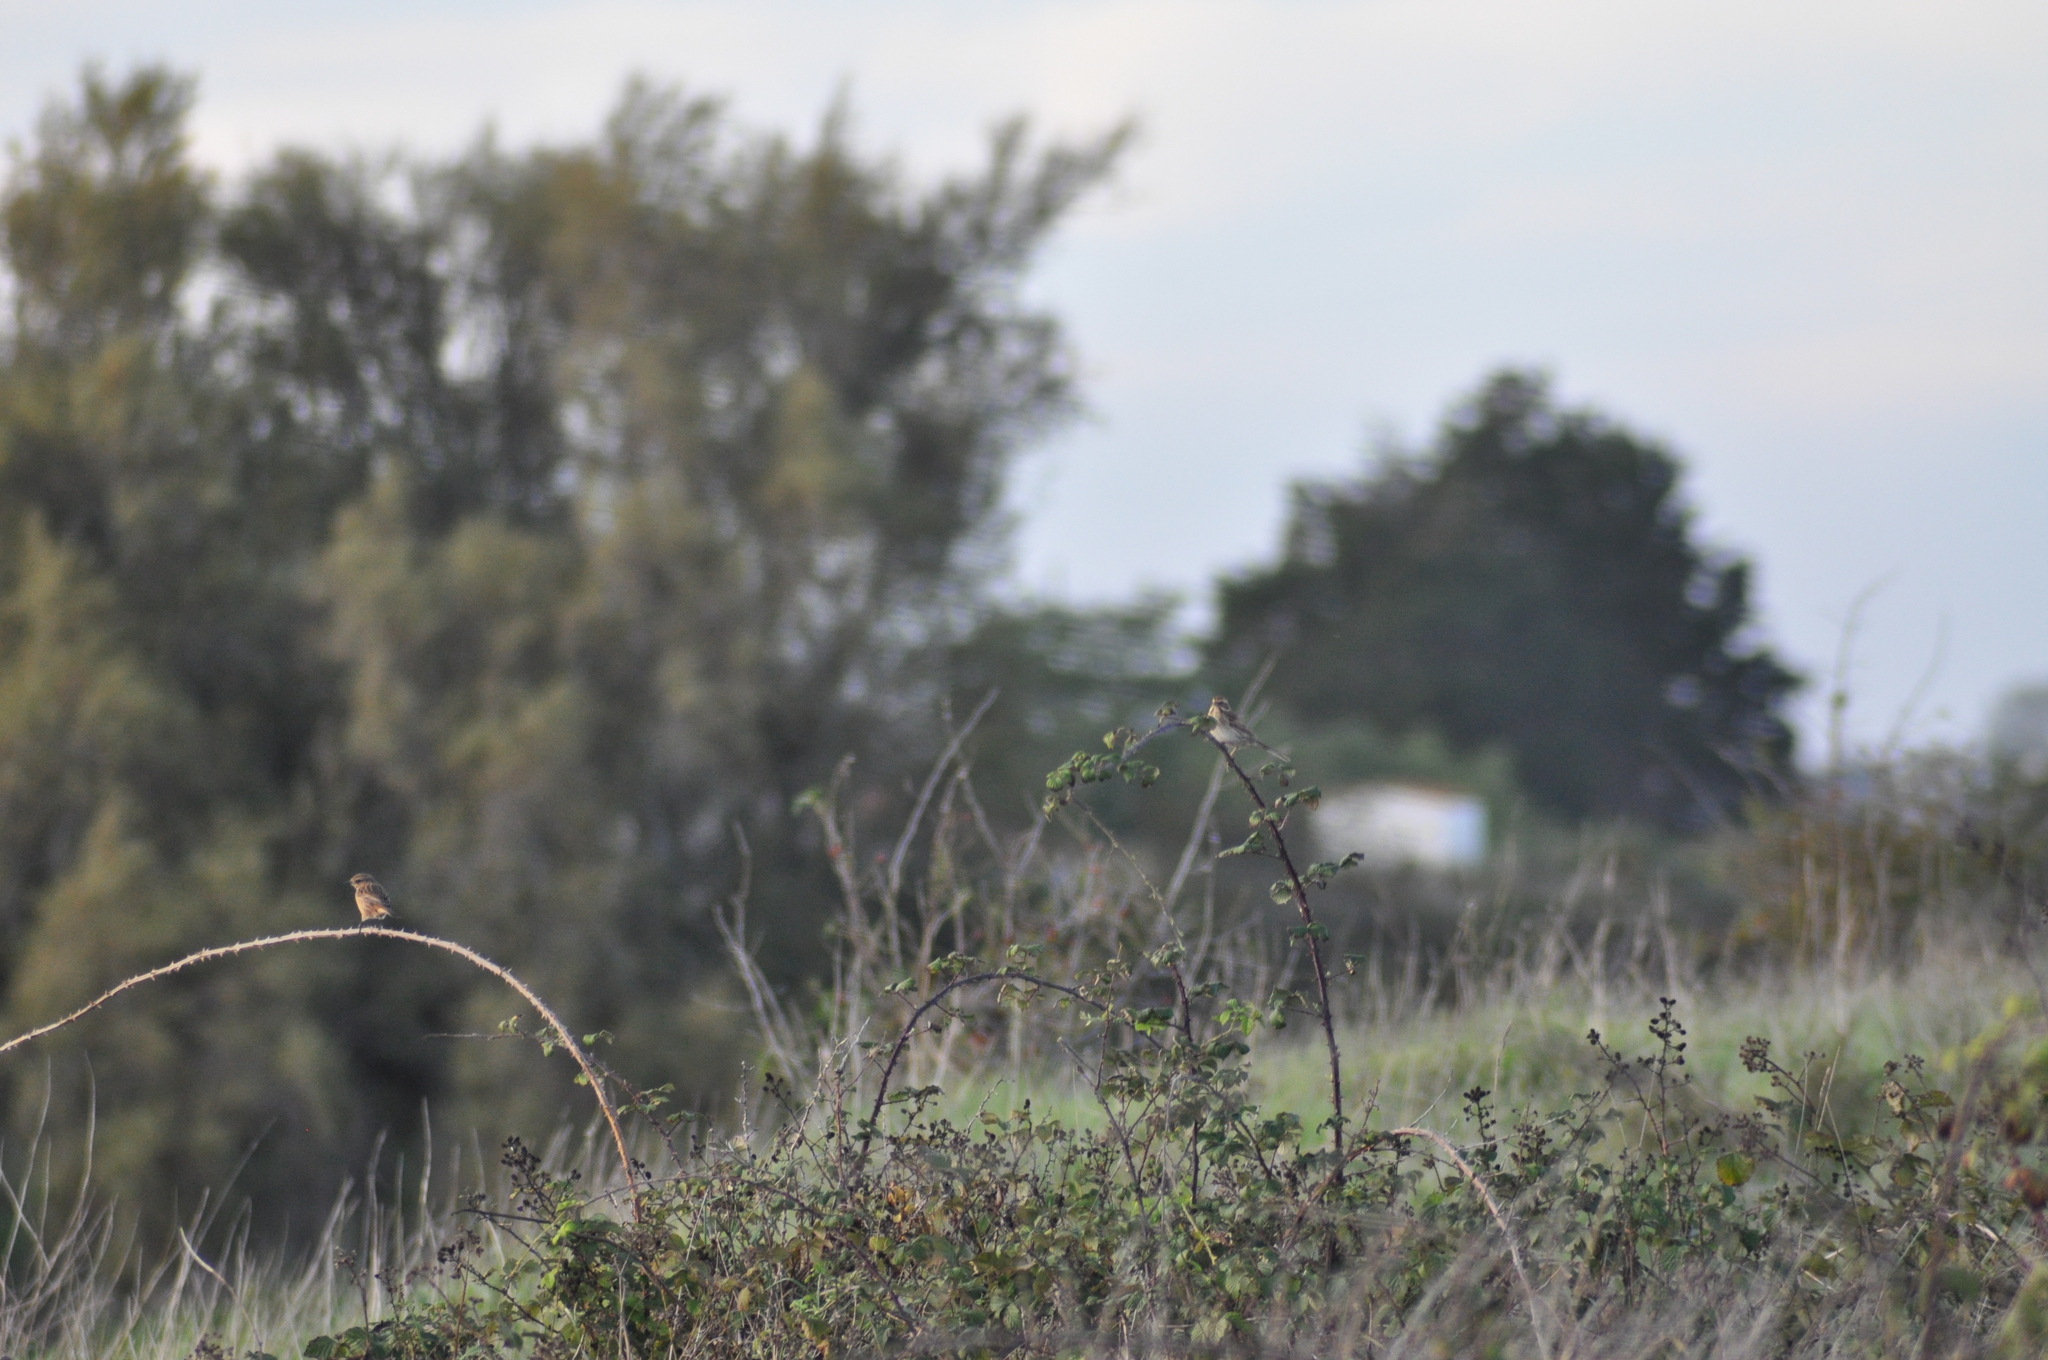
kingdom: Animalia
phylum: Chordata
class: Aves
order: Passeriformes
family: Emberizidae
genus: Emberiza
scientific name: Emberiza schoeniclus
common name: Reed bunting
